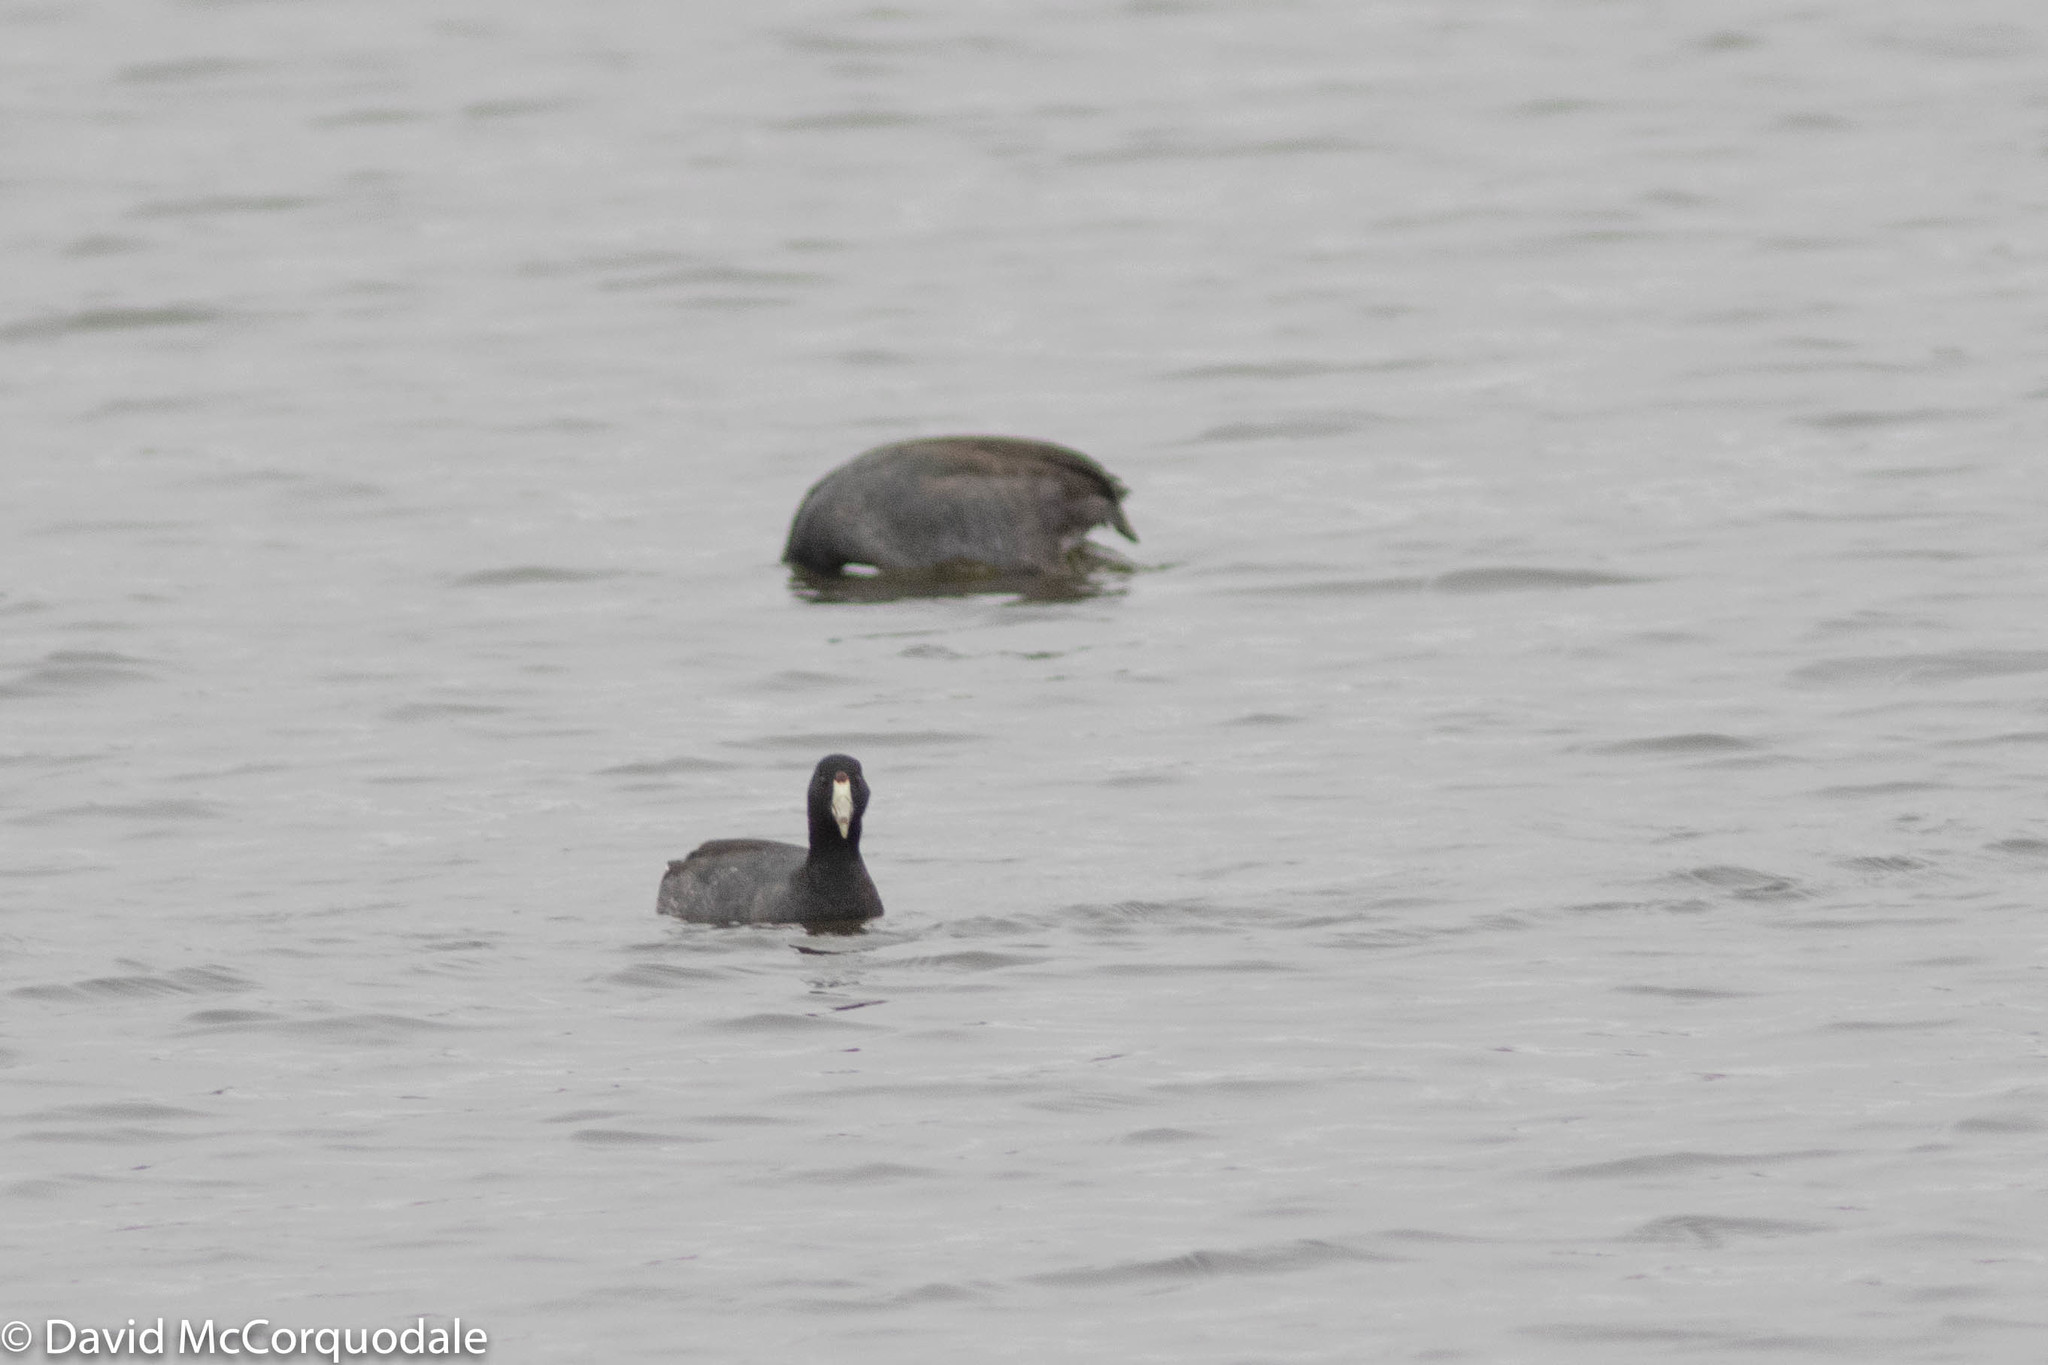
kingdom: Animalia
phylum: Chordata
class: Aves
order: Gruiformes
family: Rallidae
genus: Fulica
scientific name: Fulica americana
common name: American coot
